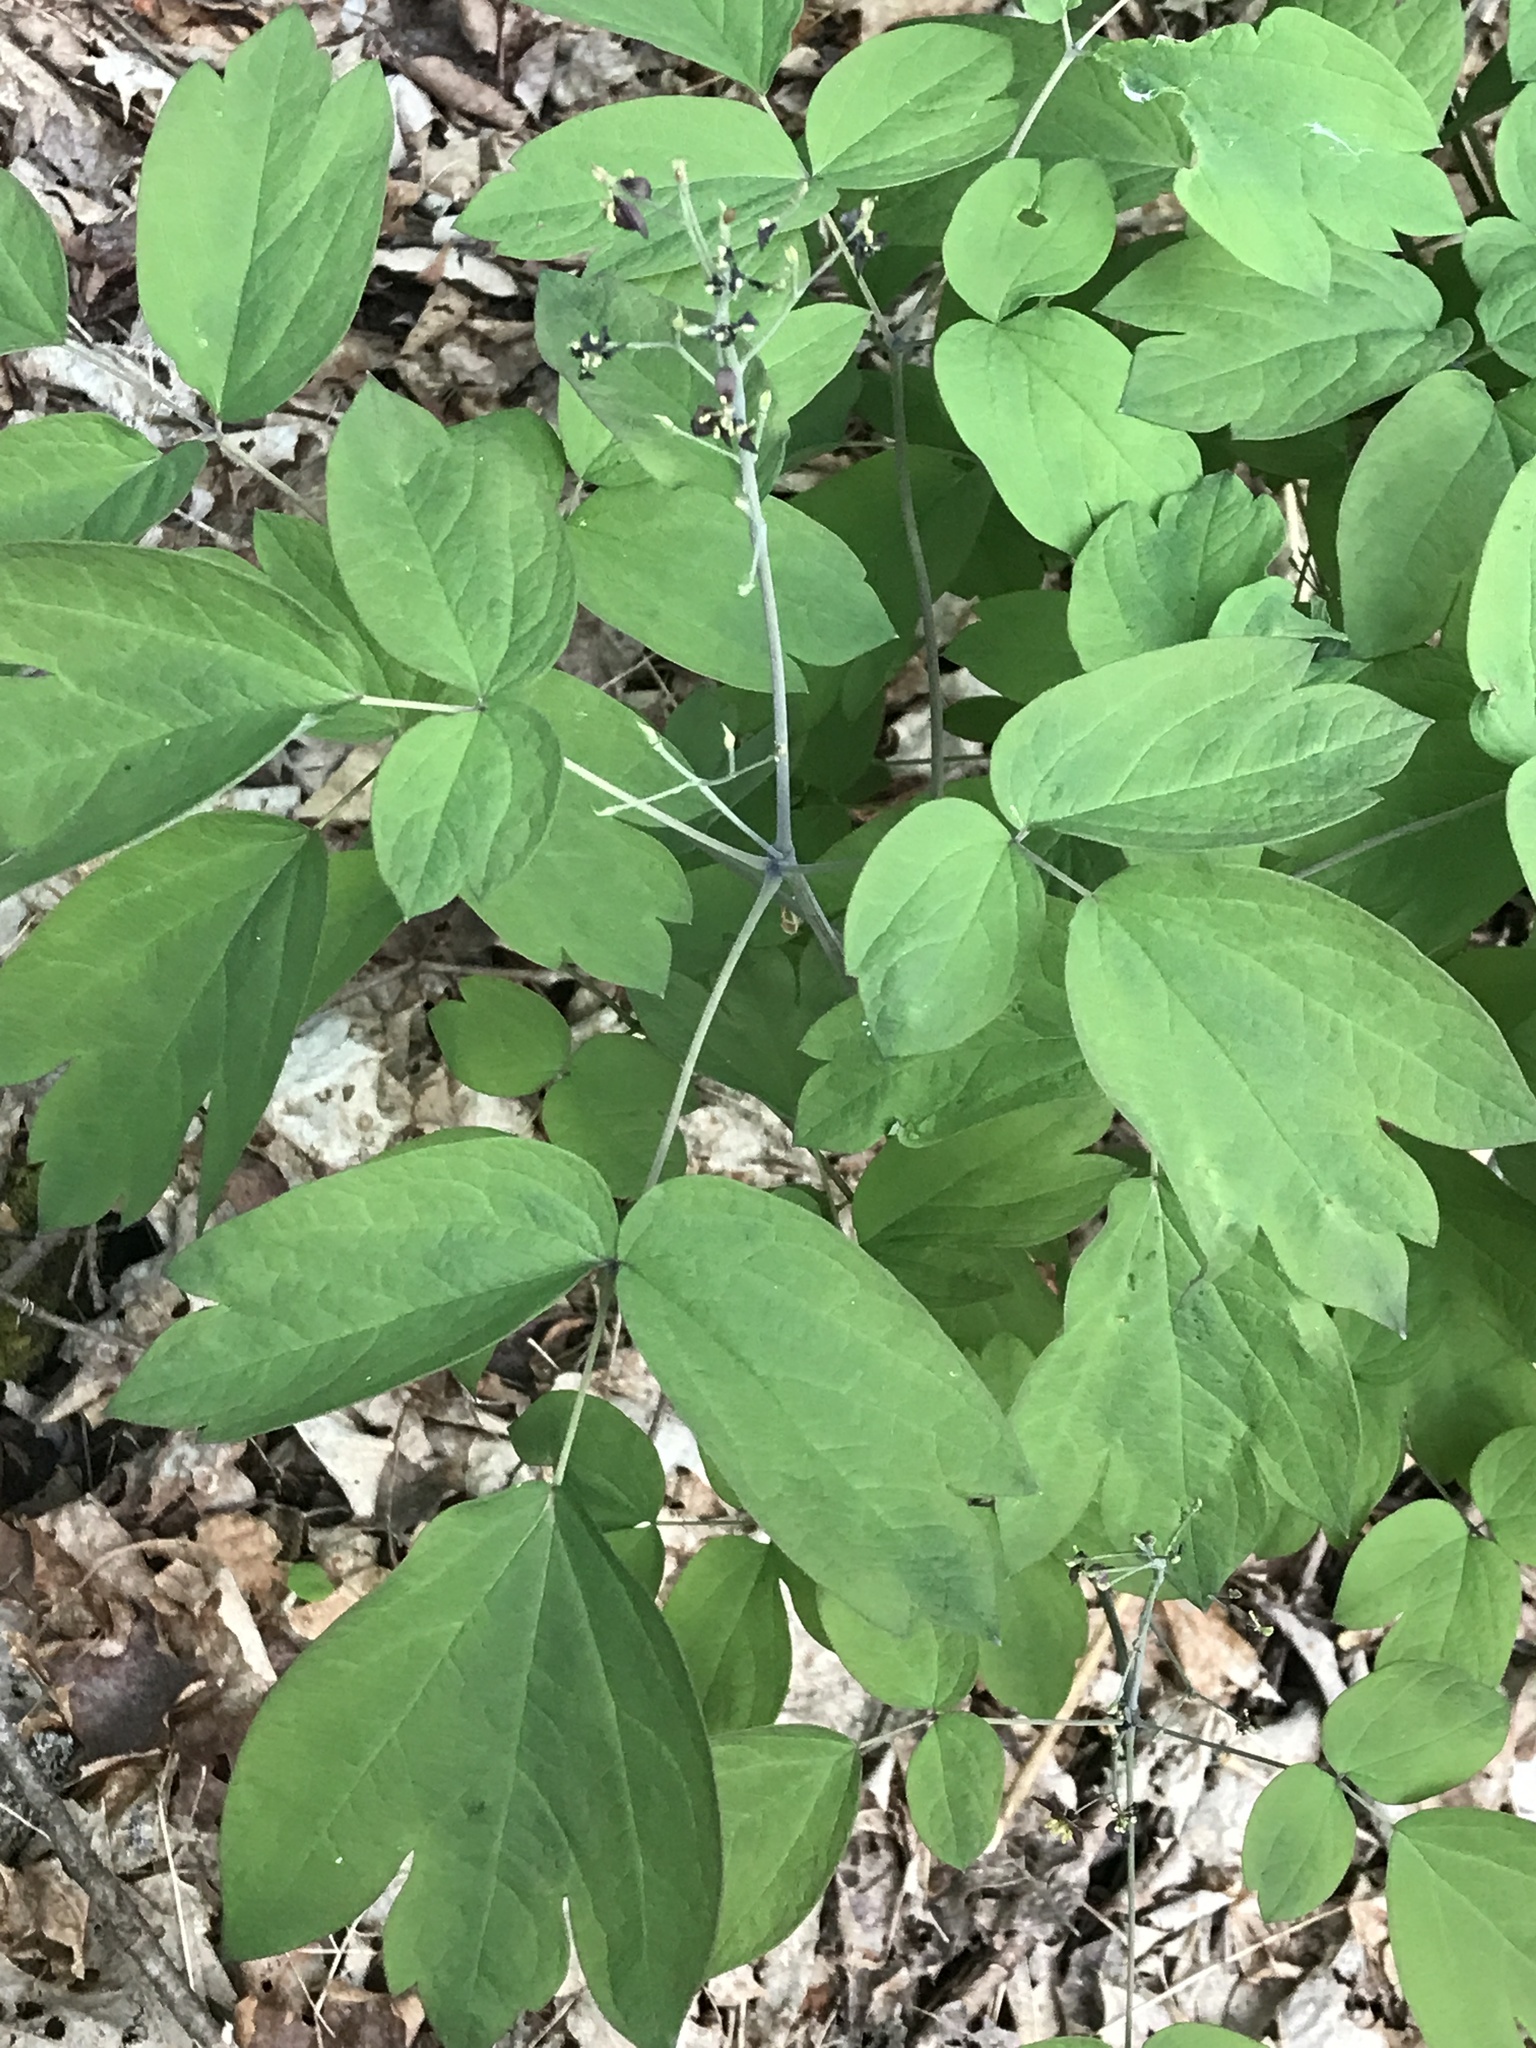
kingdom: Plantae
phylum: Tracheophyta
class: Magnoliopsida
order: Ranunculales
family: Berberidaceae
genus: Caulophyllum
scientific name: Caulophyllum giganteum
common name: Blue cohosh
